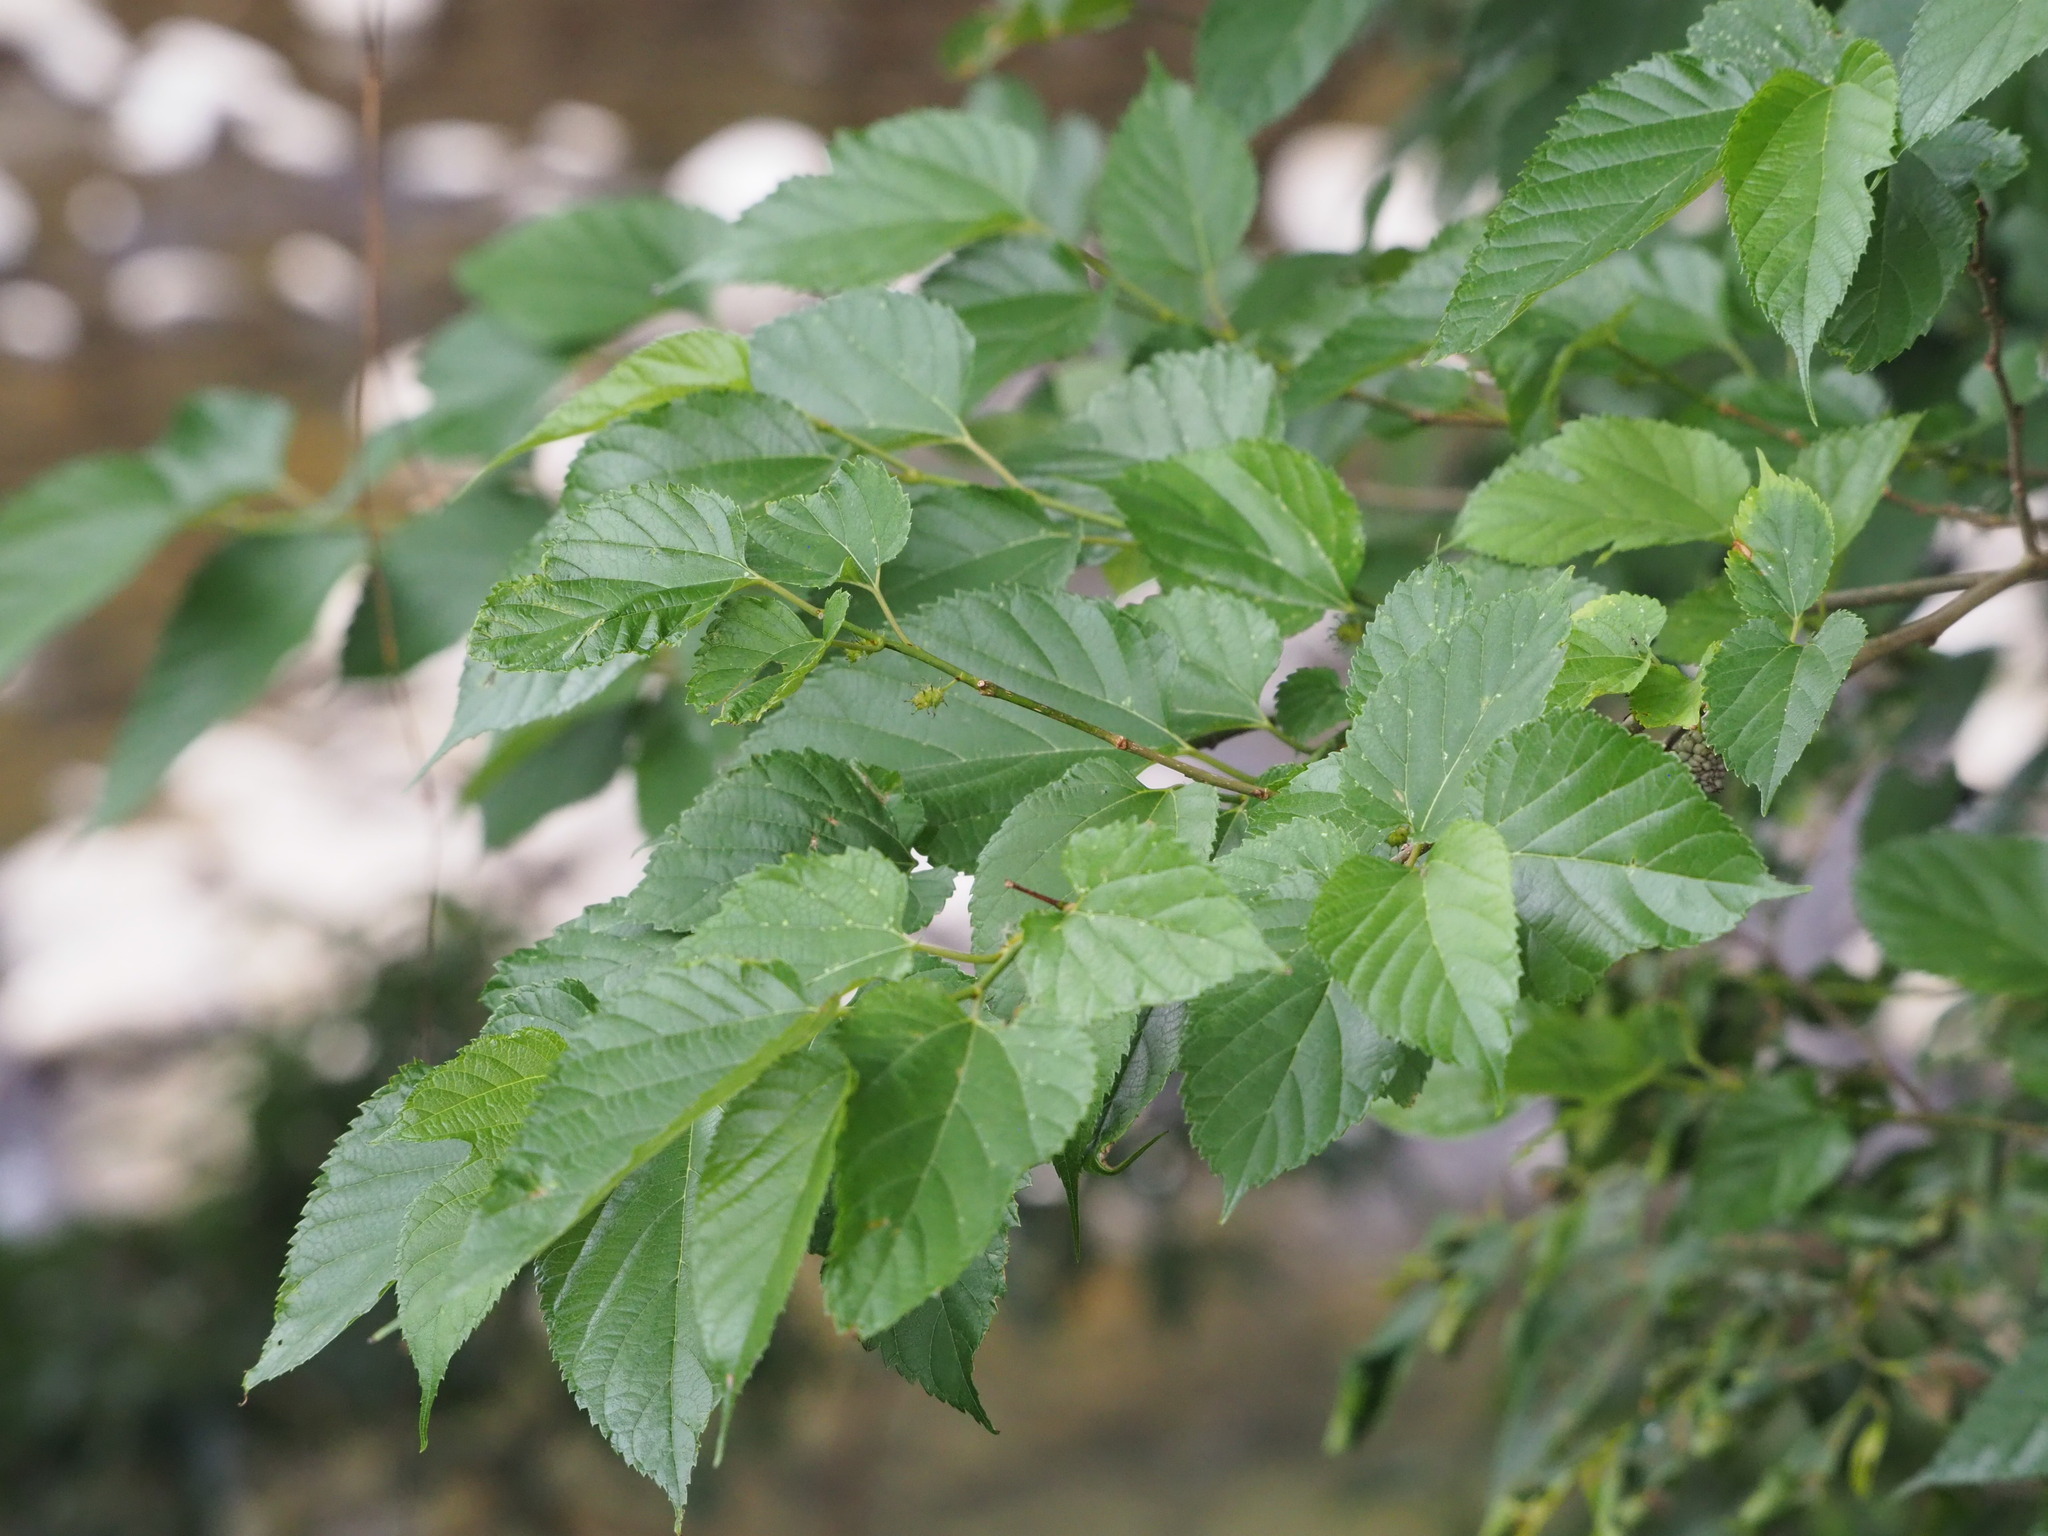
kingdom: Plantae
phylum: Tracheophyta
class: Magnoliopsida
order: Rosales
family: Moraceae
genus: Morus
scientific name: Morus indica
